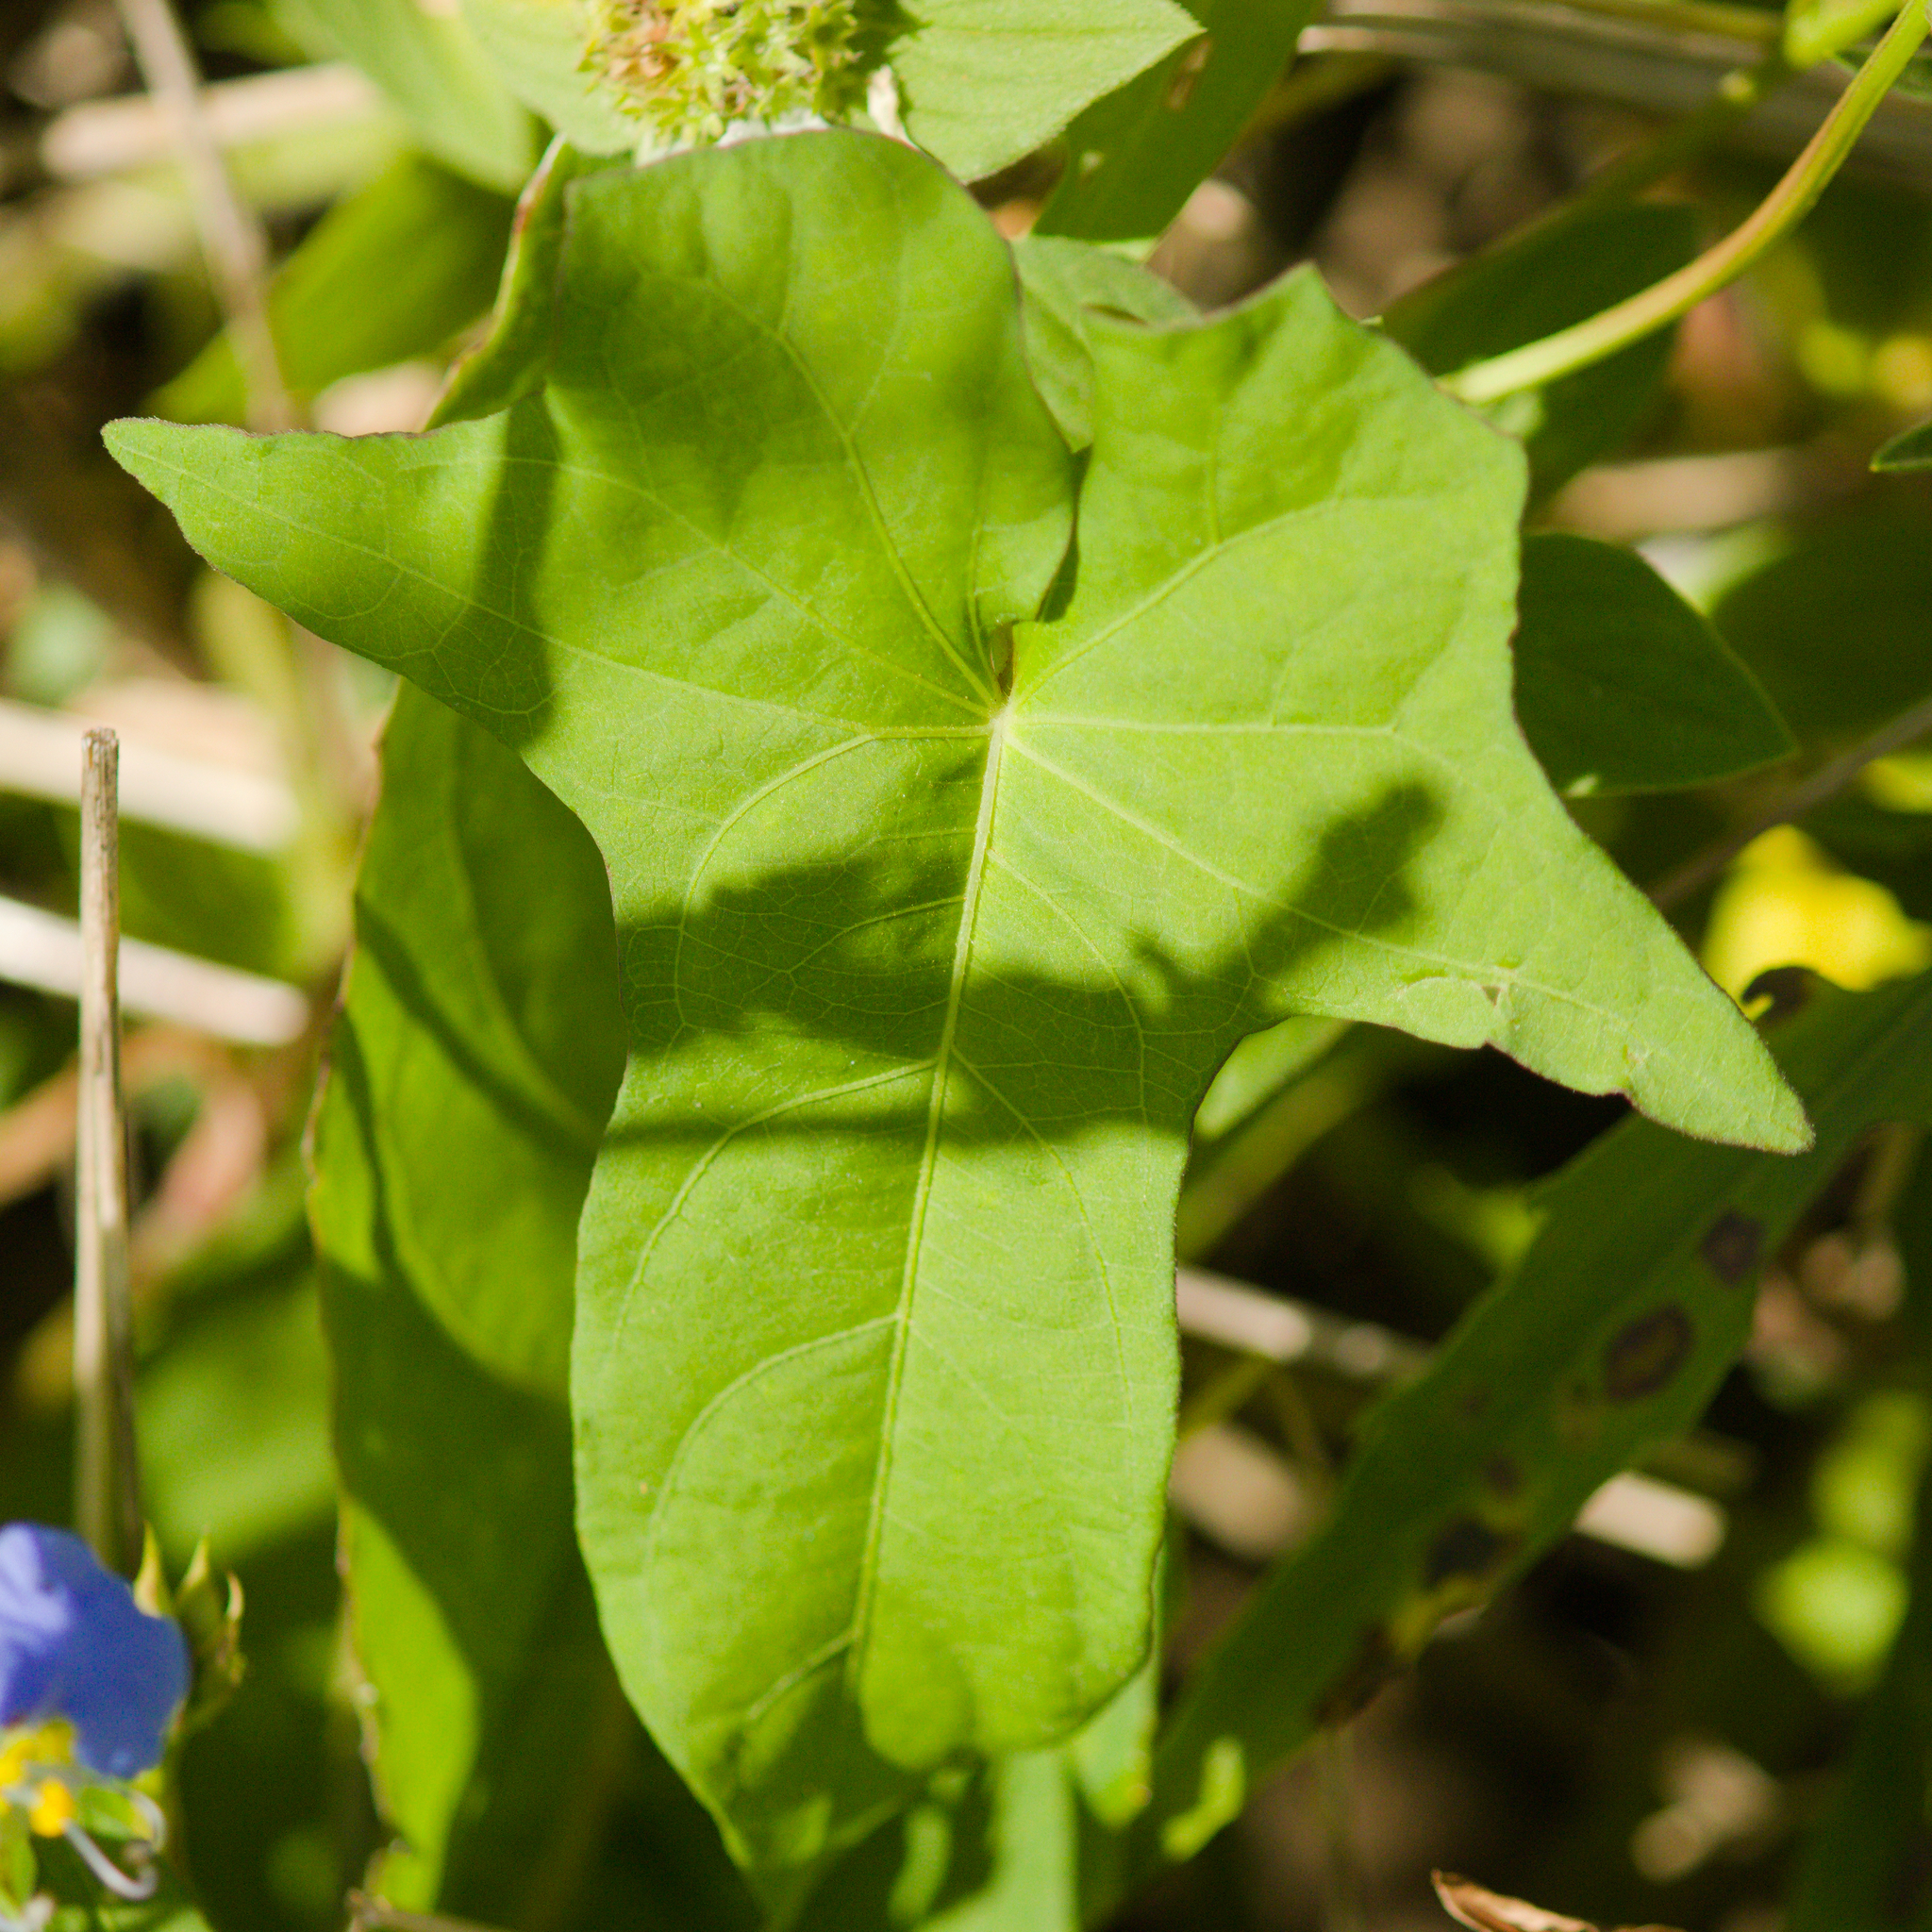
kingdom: Plantae
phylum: Tracheophyta
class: Magnoliopsida
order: Solanales
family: Convolvulaceae
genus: Ipomoea
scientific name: Ipomoea grandifolia
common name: Aiea morning glory
